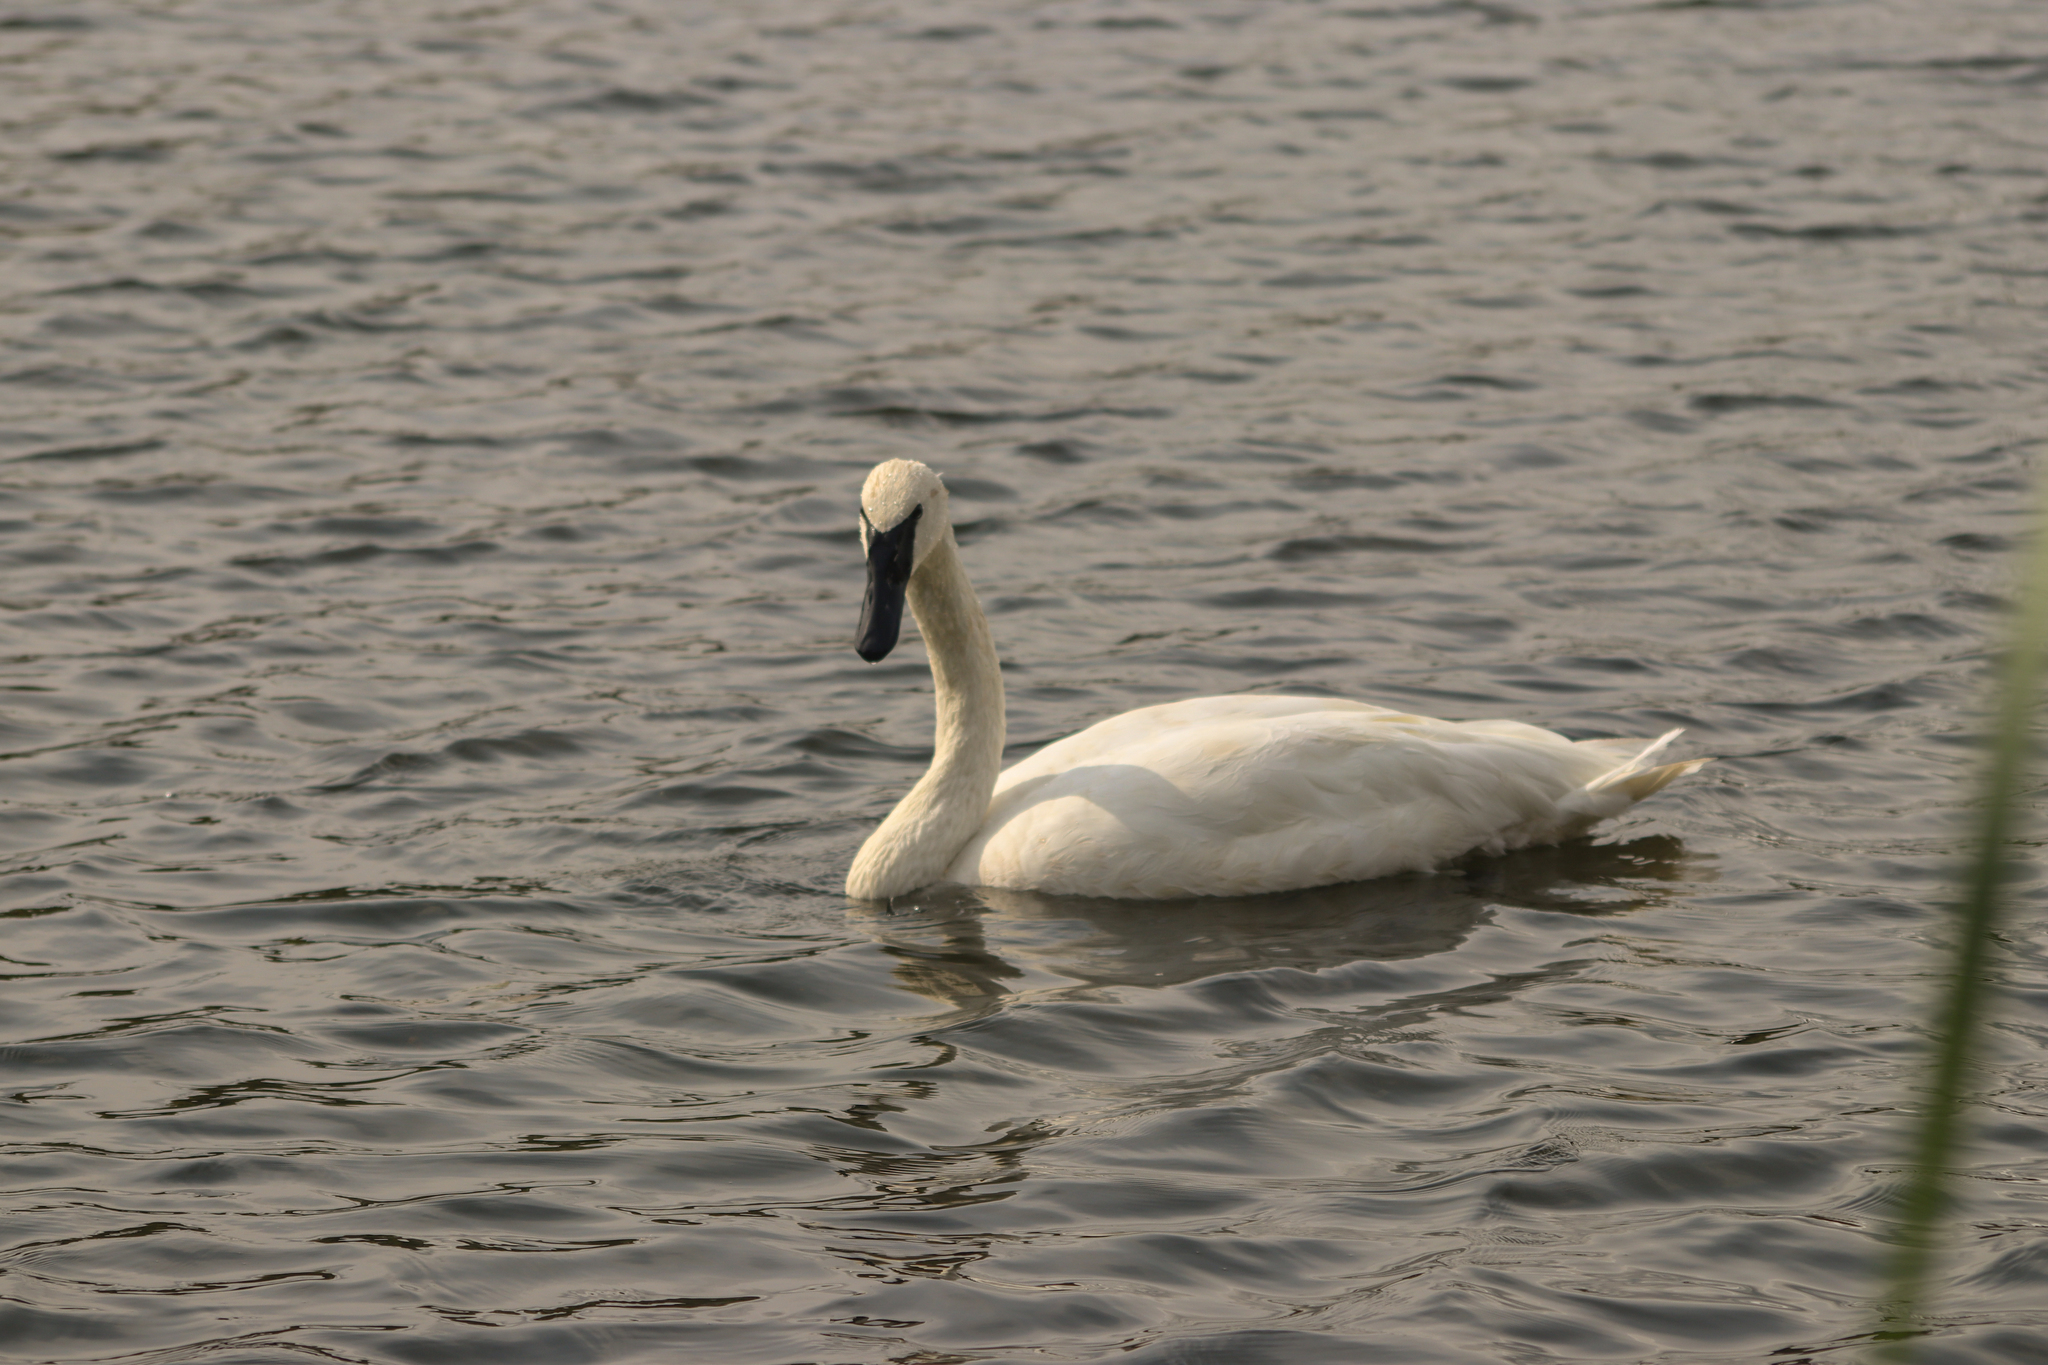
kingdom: Animalia
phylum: Chordata
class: Aves
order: Anseriformes
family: Anatidae
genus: Cygnus
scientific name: Cygnus buccinator
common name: Trumpeter swan
